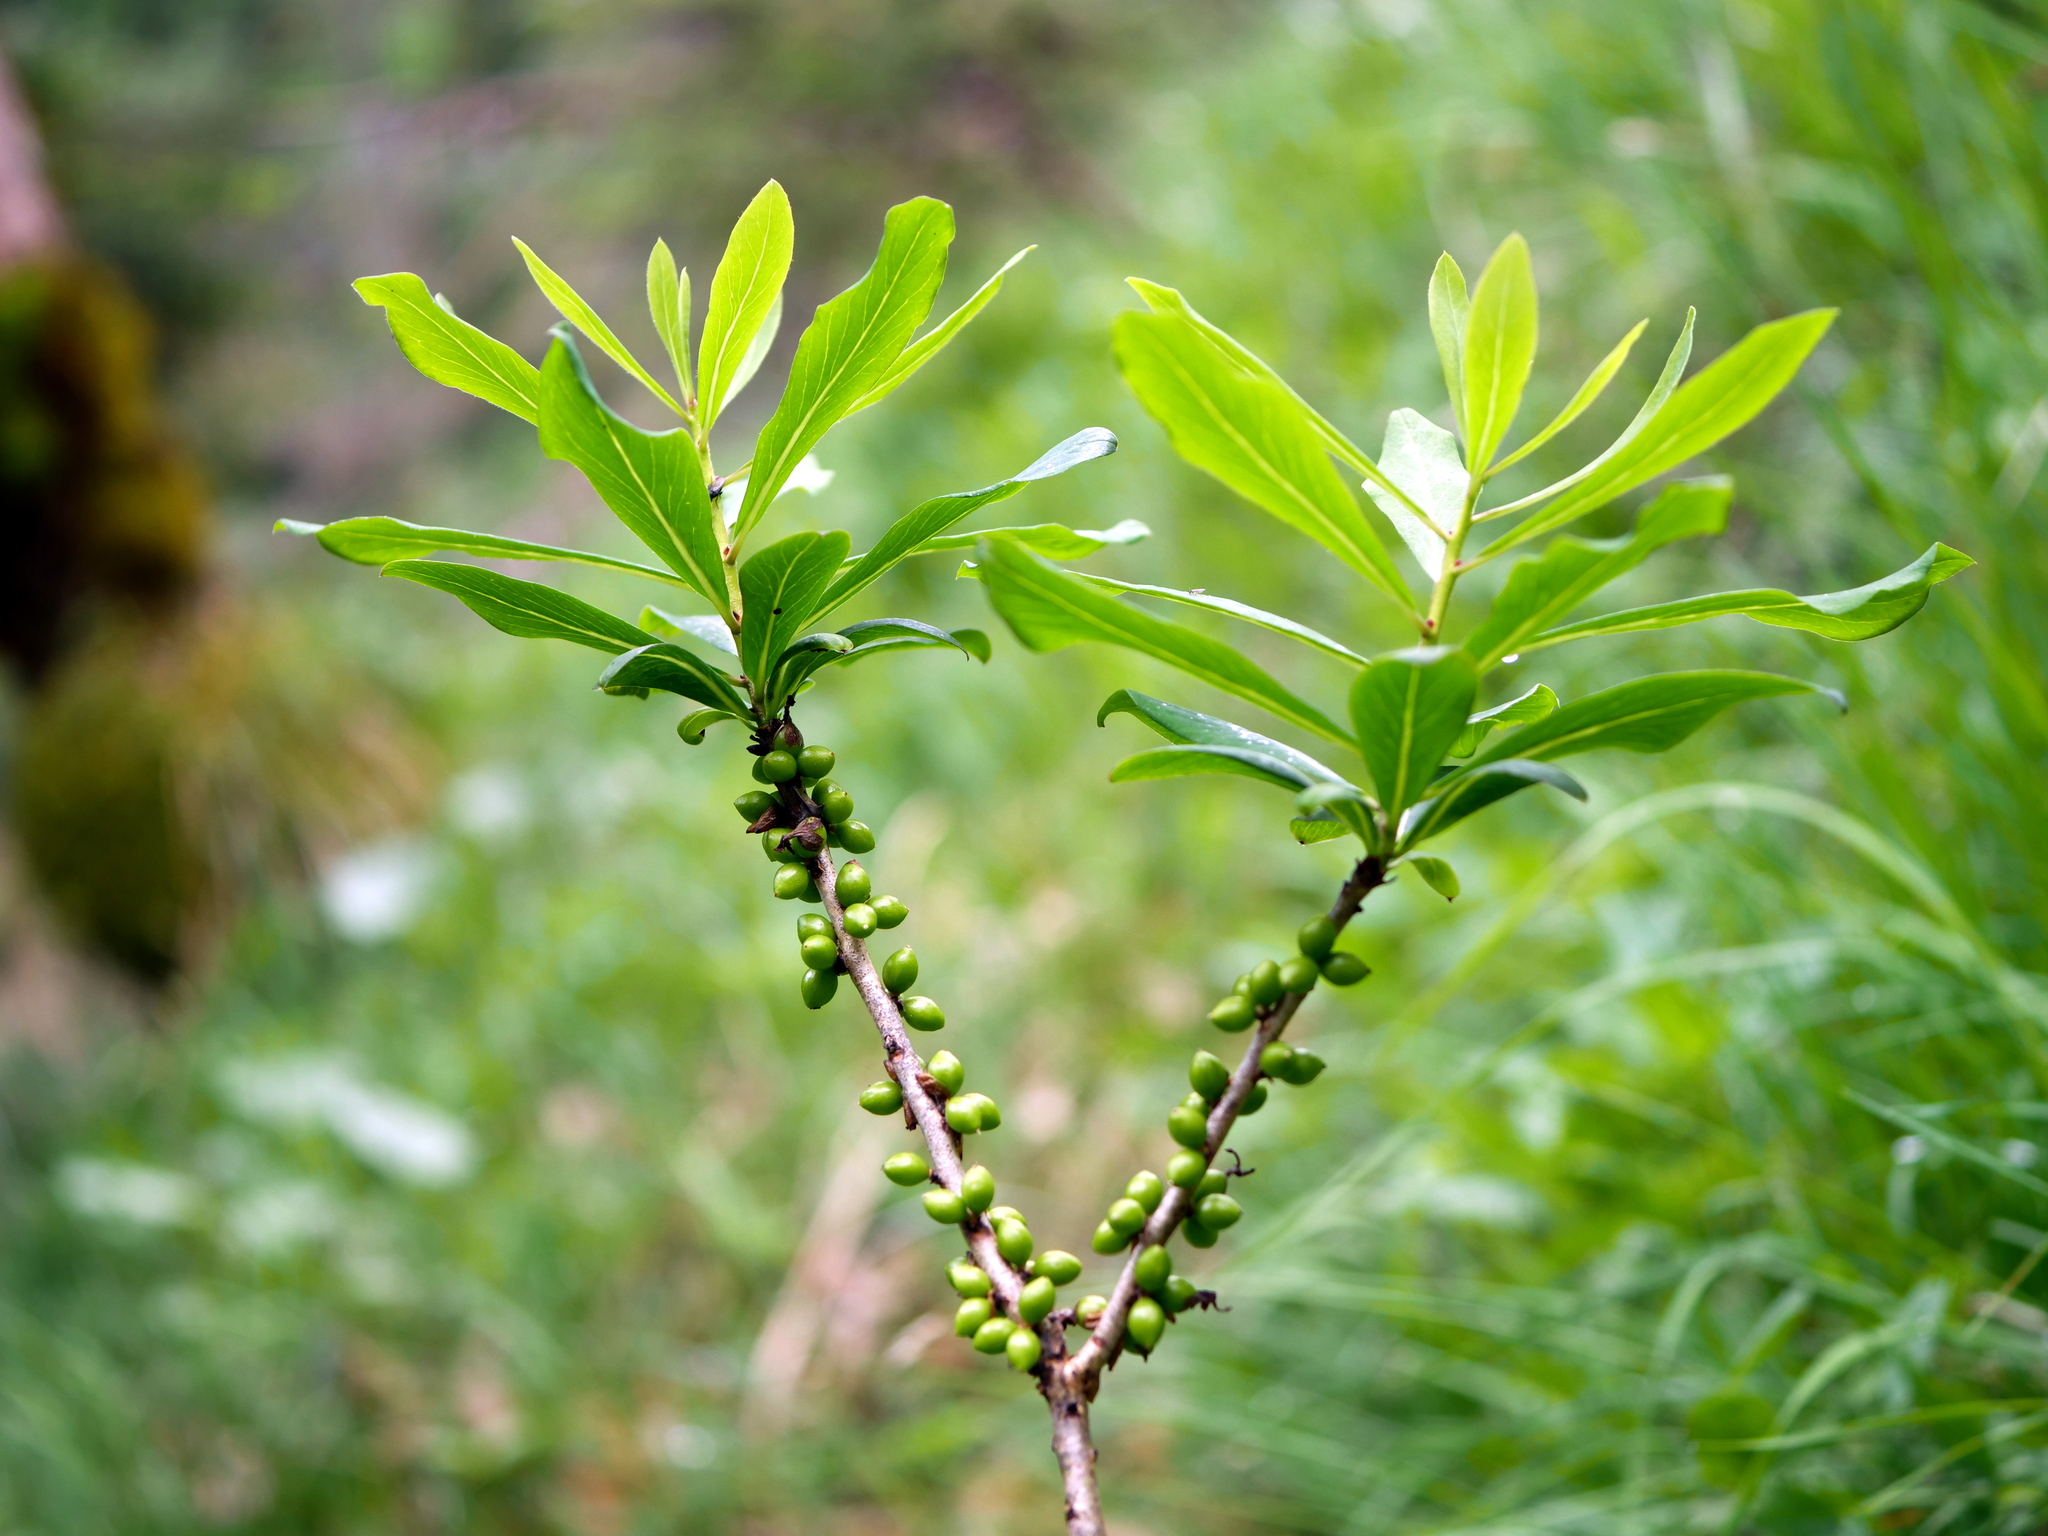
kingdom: Plantae
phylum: Tracheophyta
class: Magnoliopsida
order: Malvales
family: Thymelaeaceae
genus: Daphne
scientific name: Daphne mezereum
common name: Mezereon
